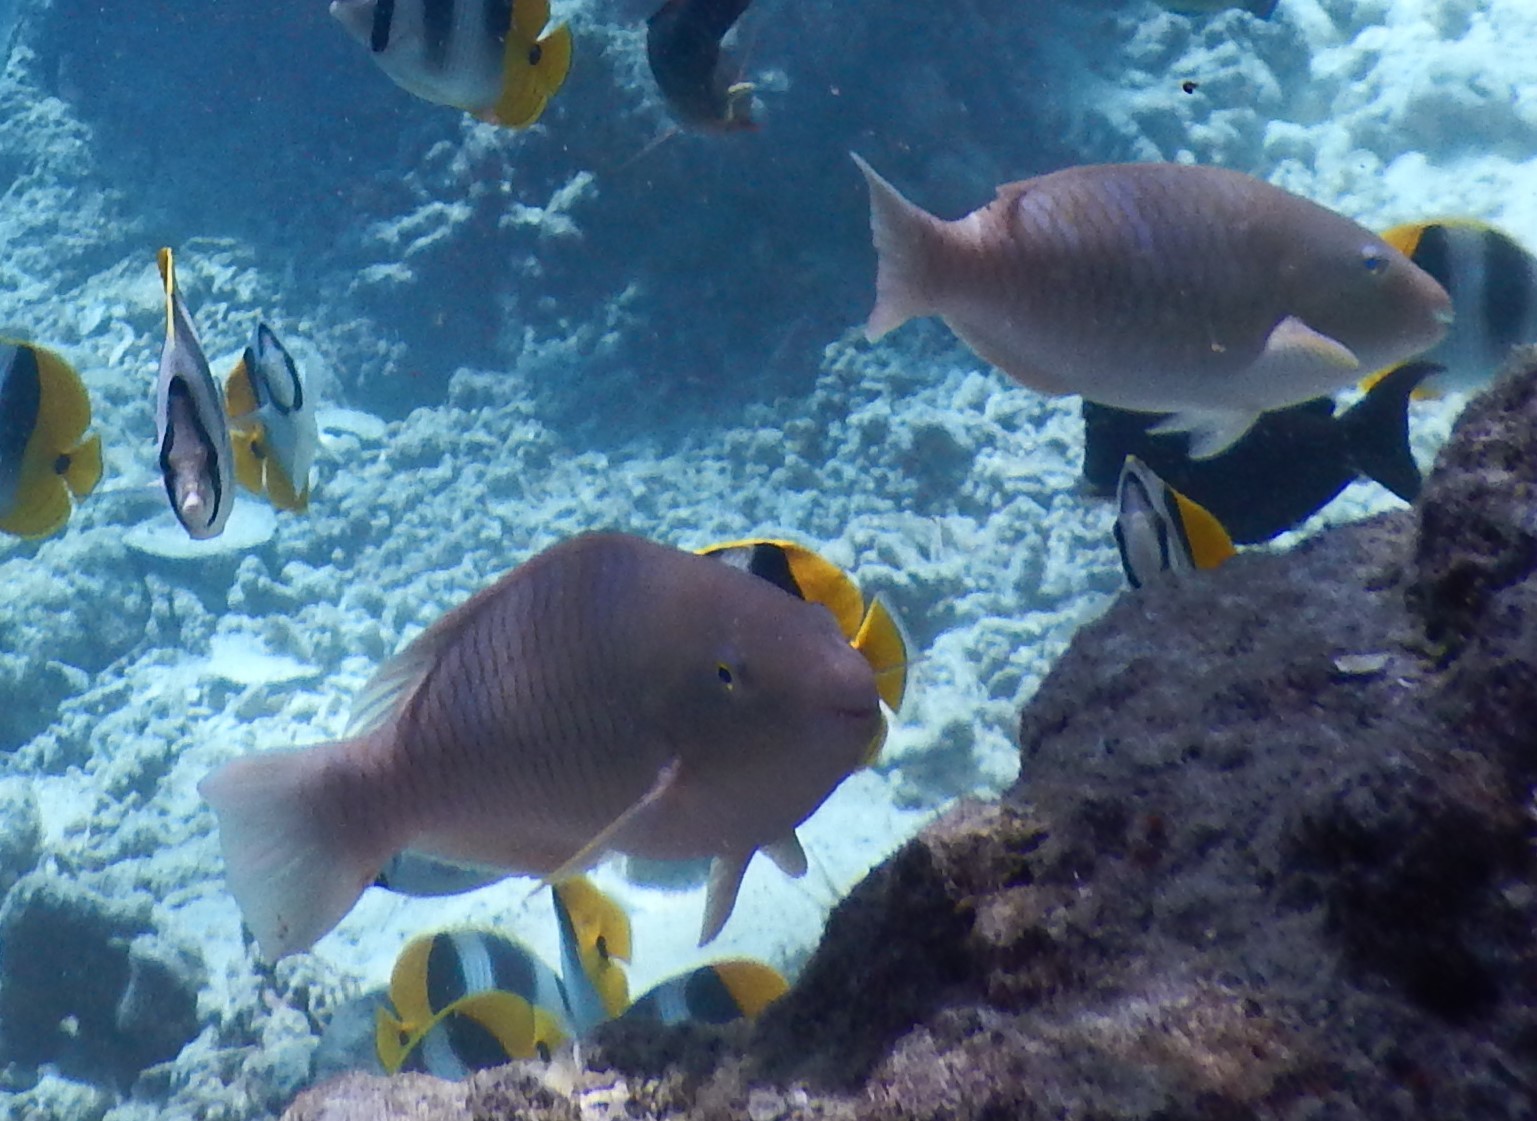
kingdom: Animalia
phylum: Chordata
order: Perciformes
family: Scaridae
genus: Hipposcarus
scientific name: Hipposcarus longiceps
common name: Pacific longnose parrotfish
